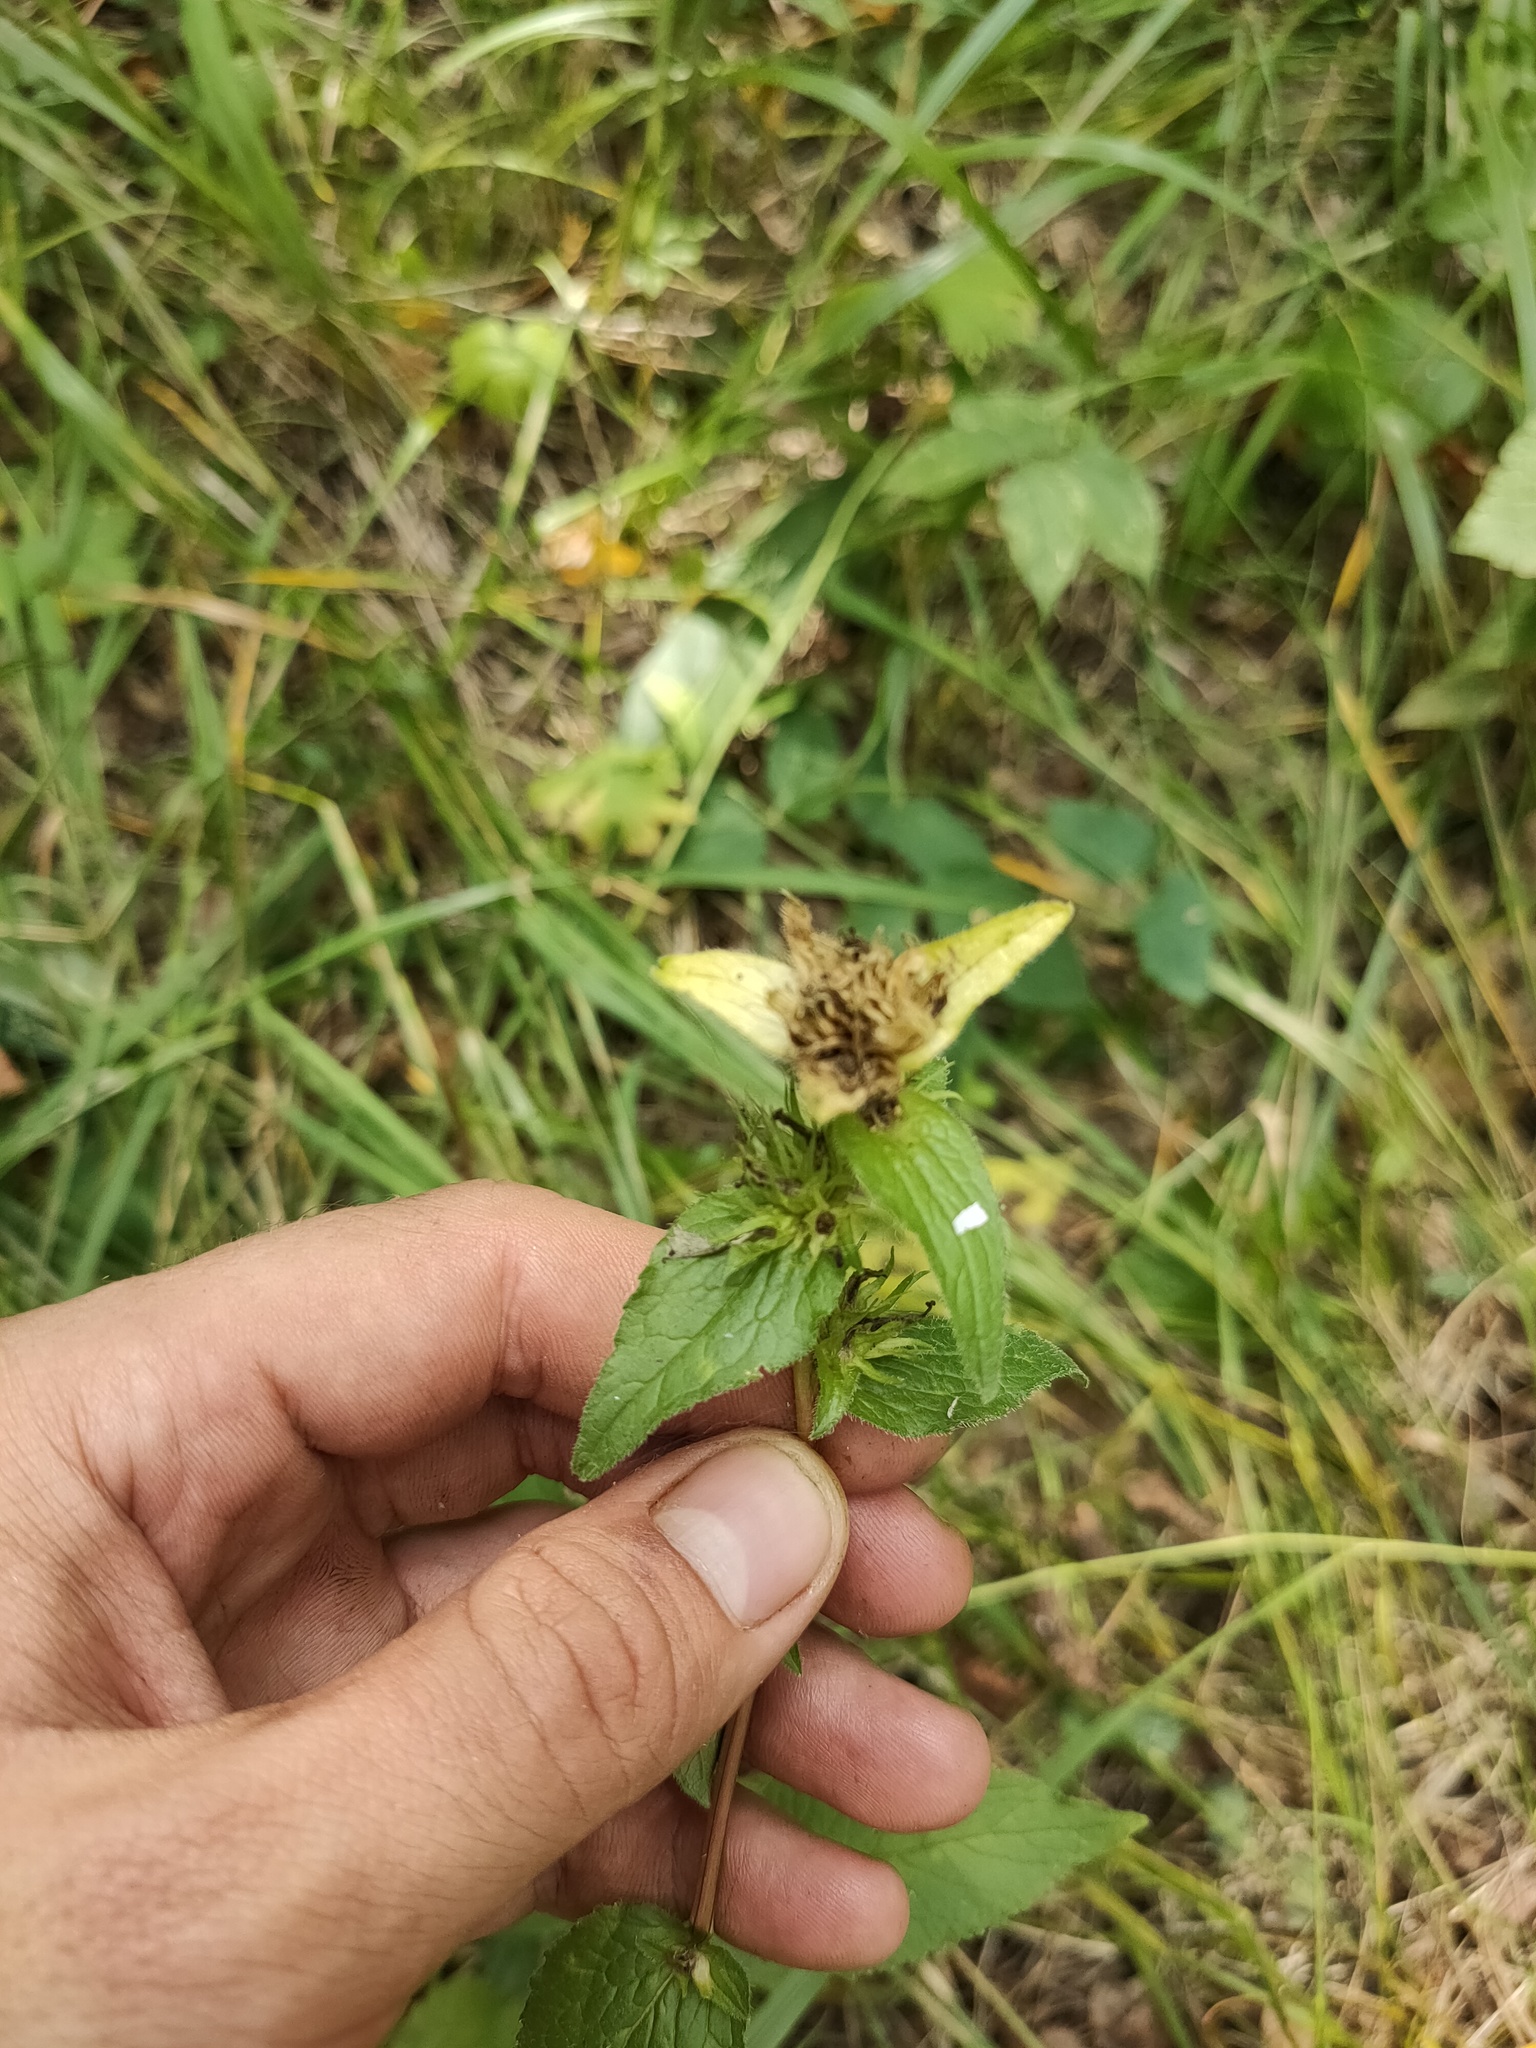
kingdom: Plantae
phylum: Tracheophyta
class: Magnoliopsida
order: Asterales
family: Campanulaceae
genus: Campanula
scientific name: Campanula glomerata
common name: Clustered bellflower
